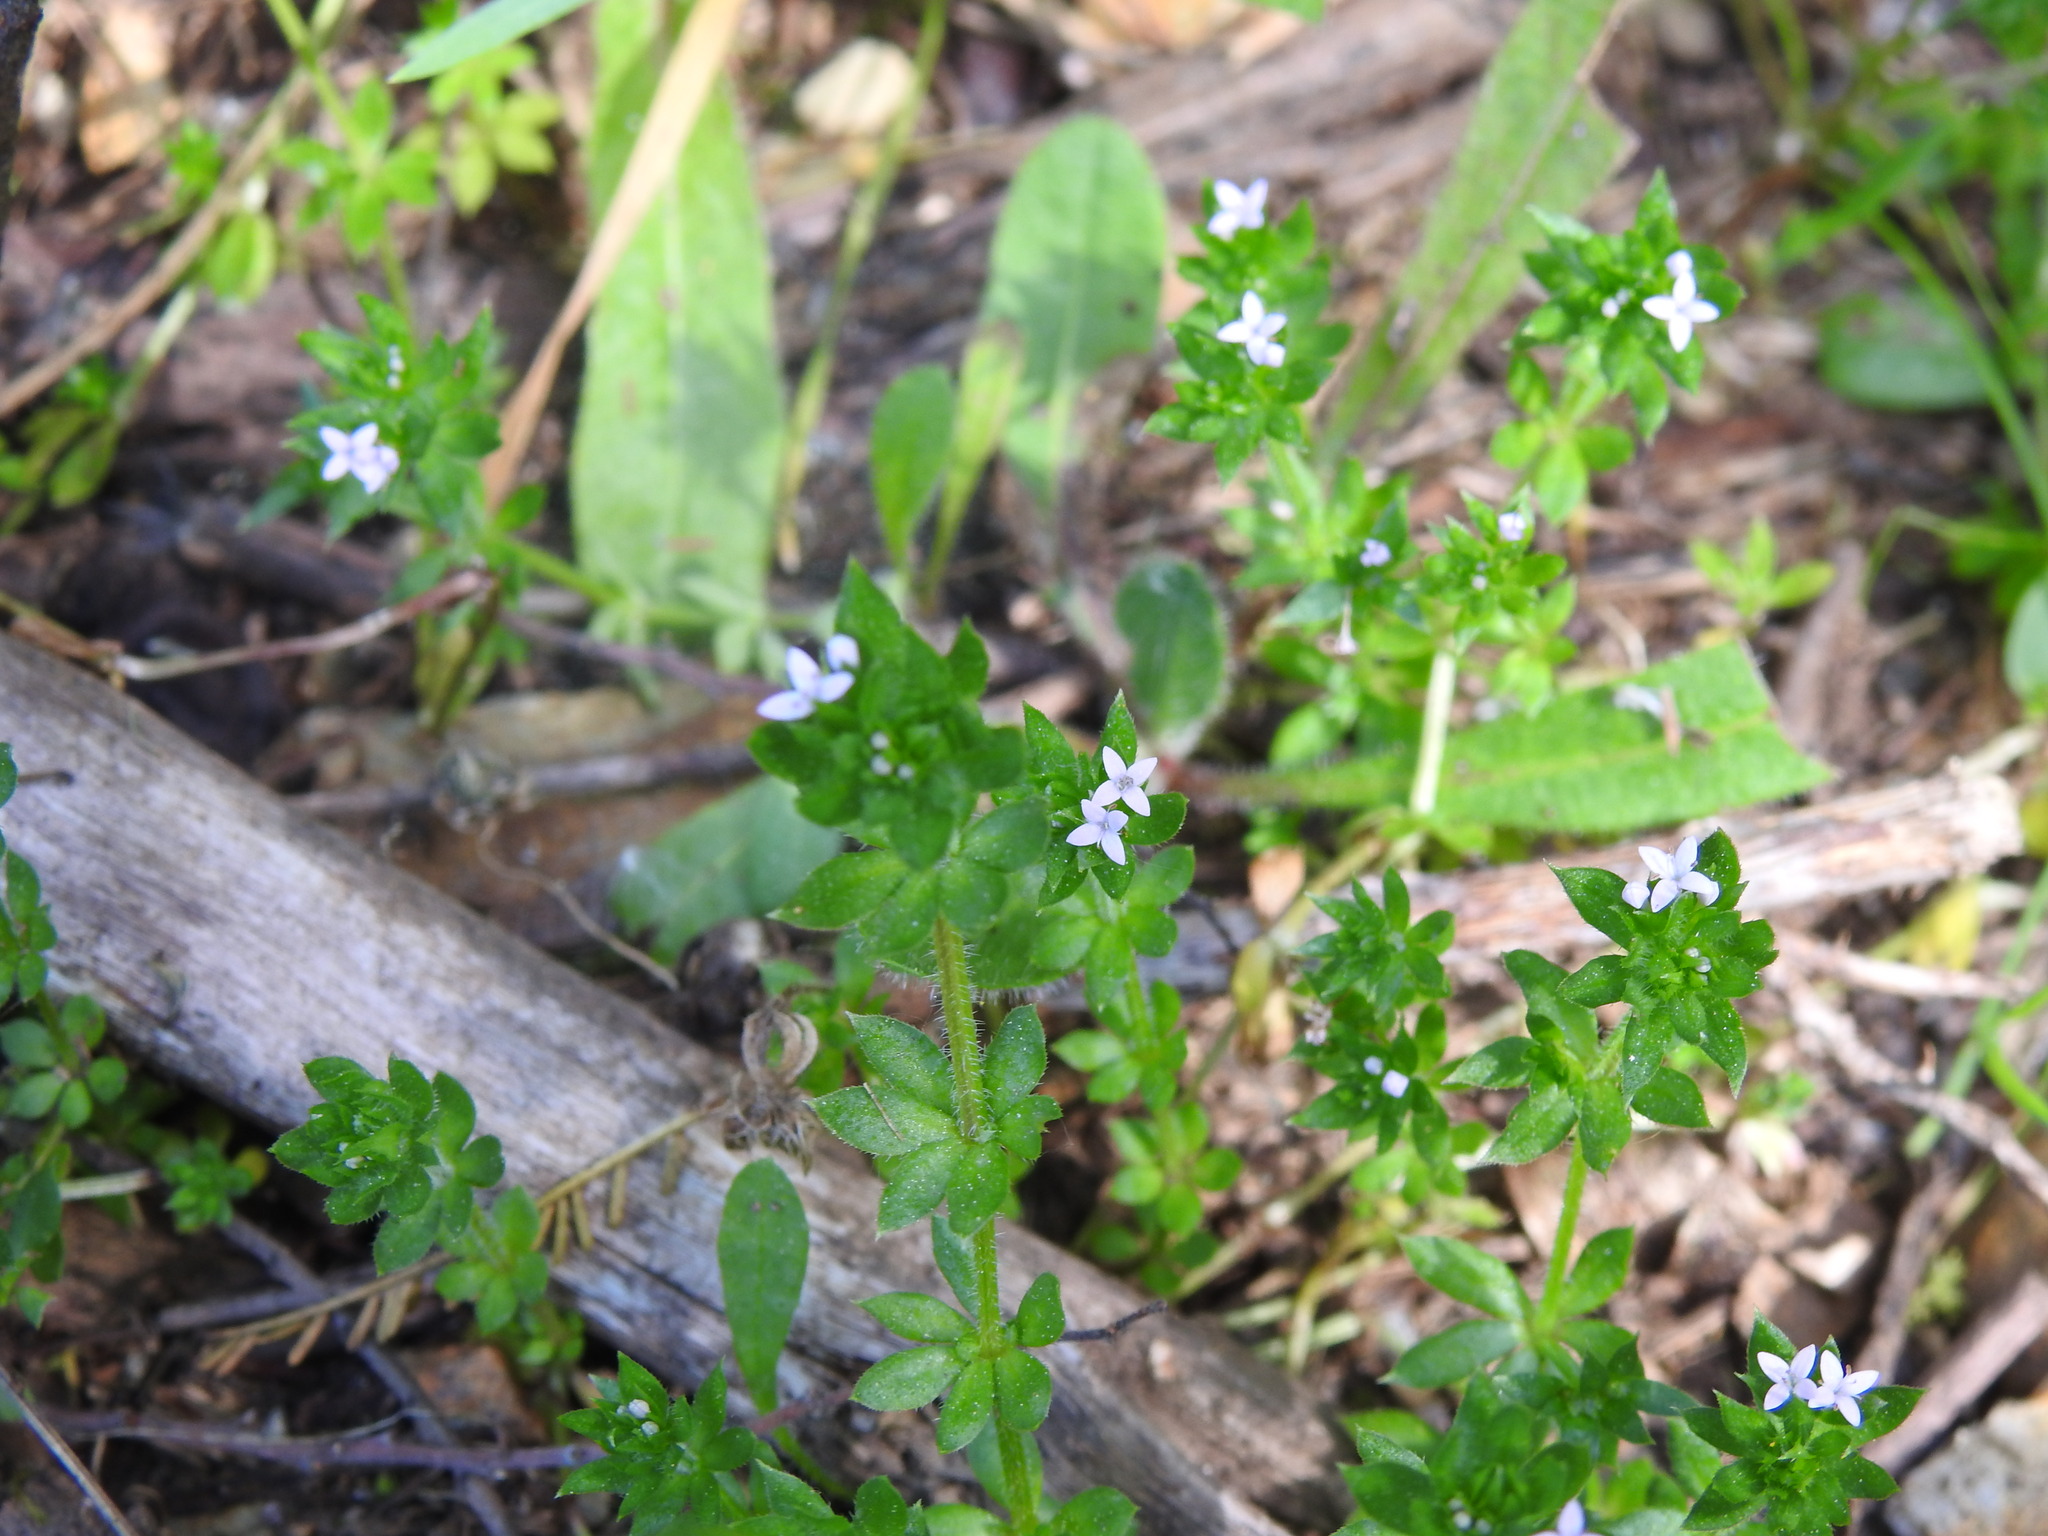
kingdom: Plantae
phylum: Tracheophyta
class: Magnoliopsida
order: Gentianales
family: Rubiaceae
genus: Sherardia
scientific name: Sherardia arvensis
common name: Field madder
